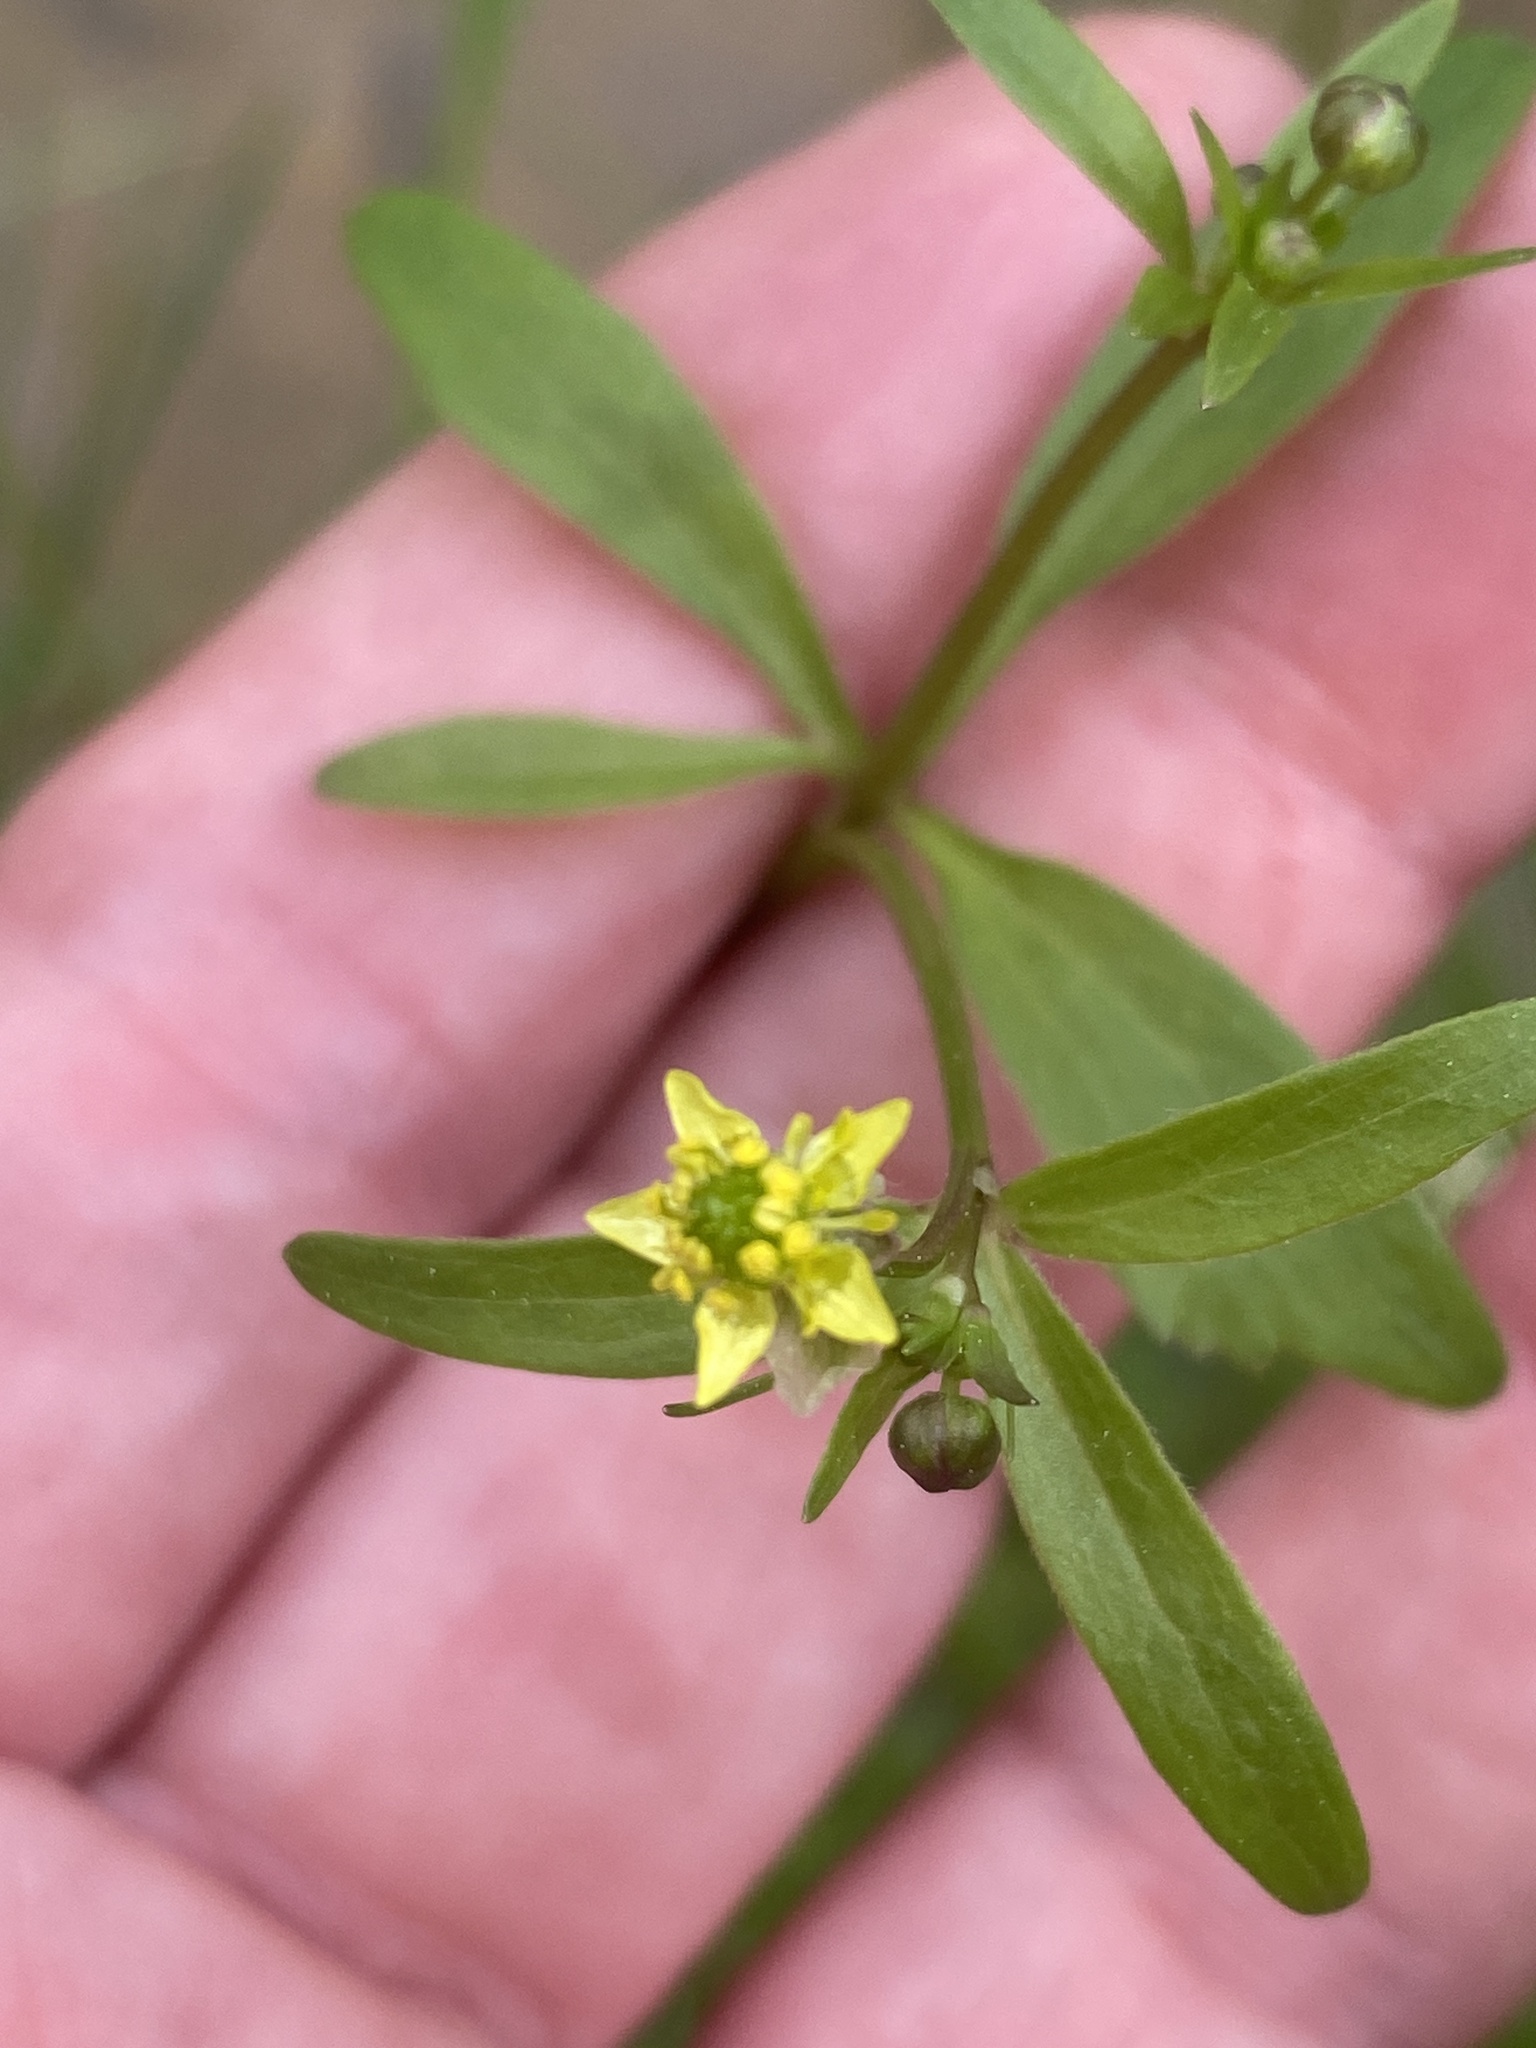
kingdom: Plantae
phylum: Tracheophyta
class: Magnoliopsida
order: Ranunculales
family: Ranunculaceae
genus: Ranunculus
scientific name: Ranunculus abortivus
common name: Early wood buttercup
